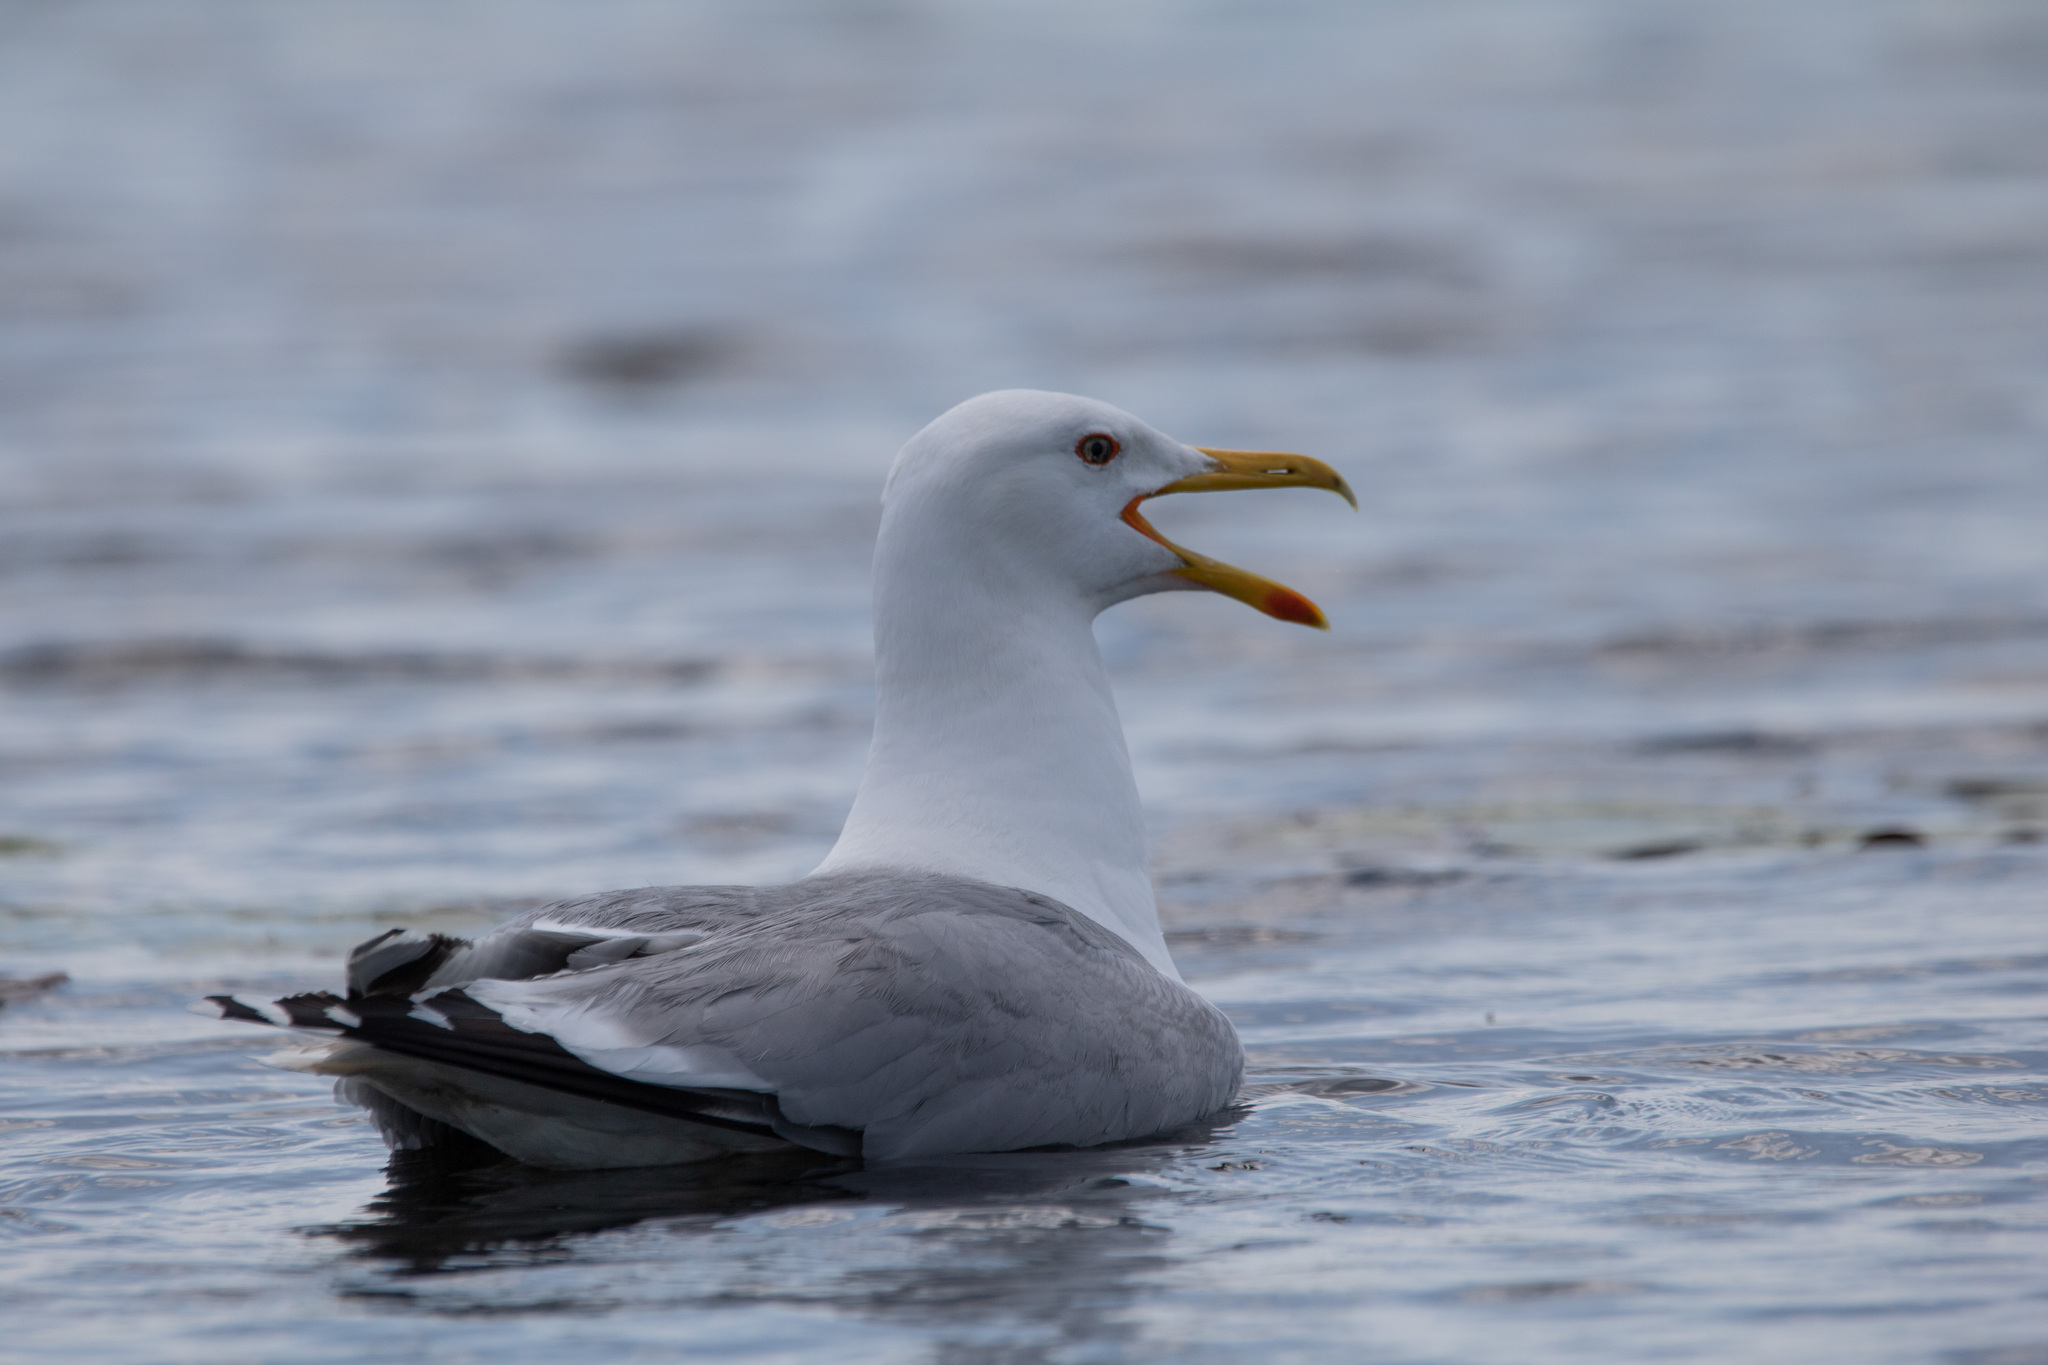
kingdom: Animalia
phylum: Chordata
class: Aves
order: Charadriiformes
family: Laridae
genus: Larus
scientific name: Larus cachinnans
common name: Caspian gull
